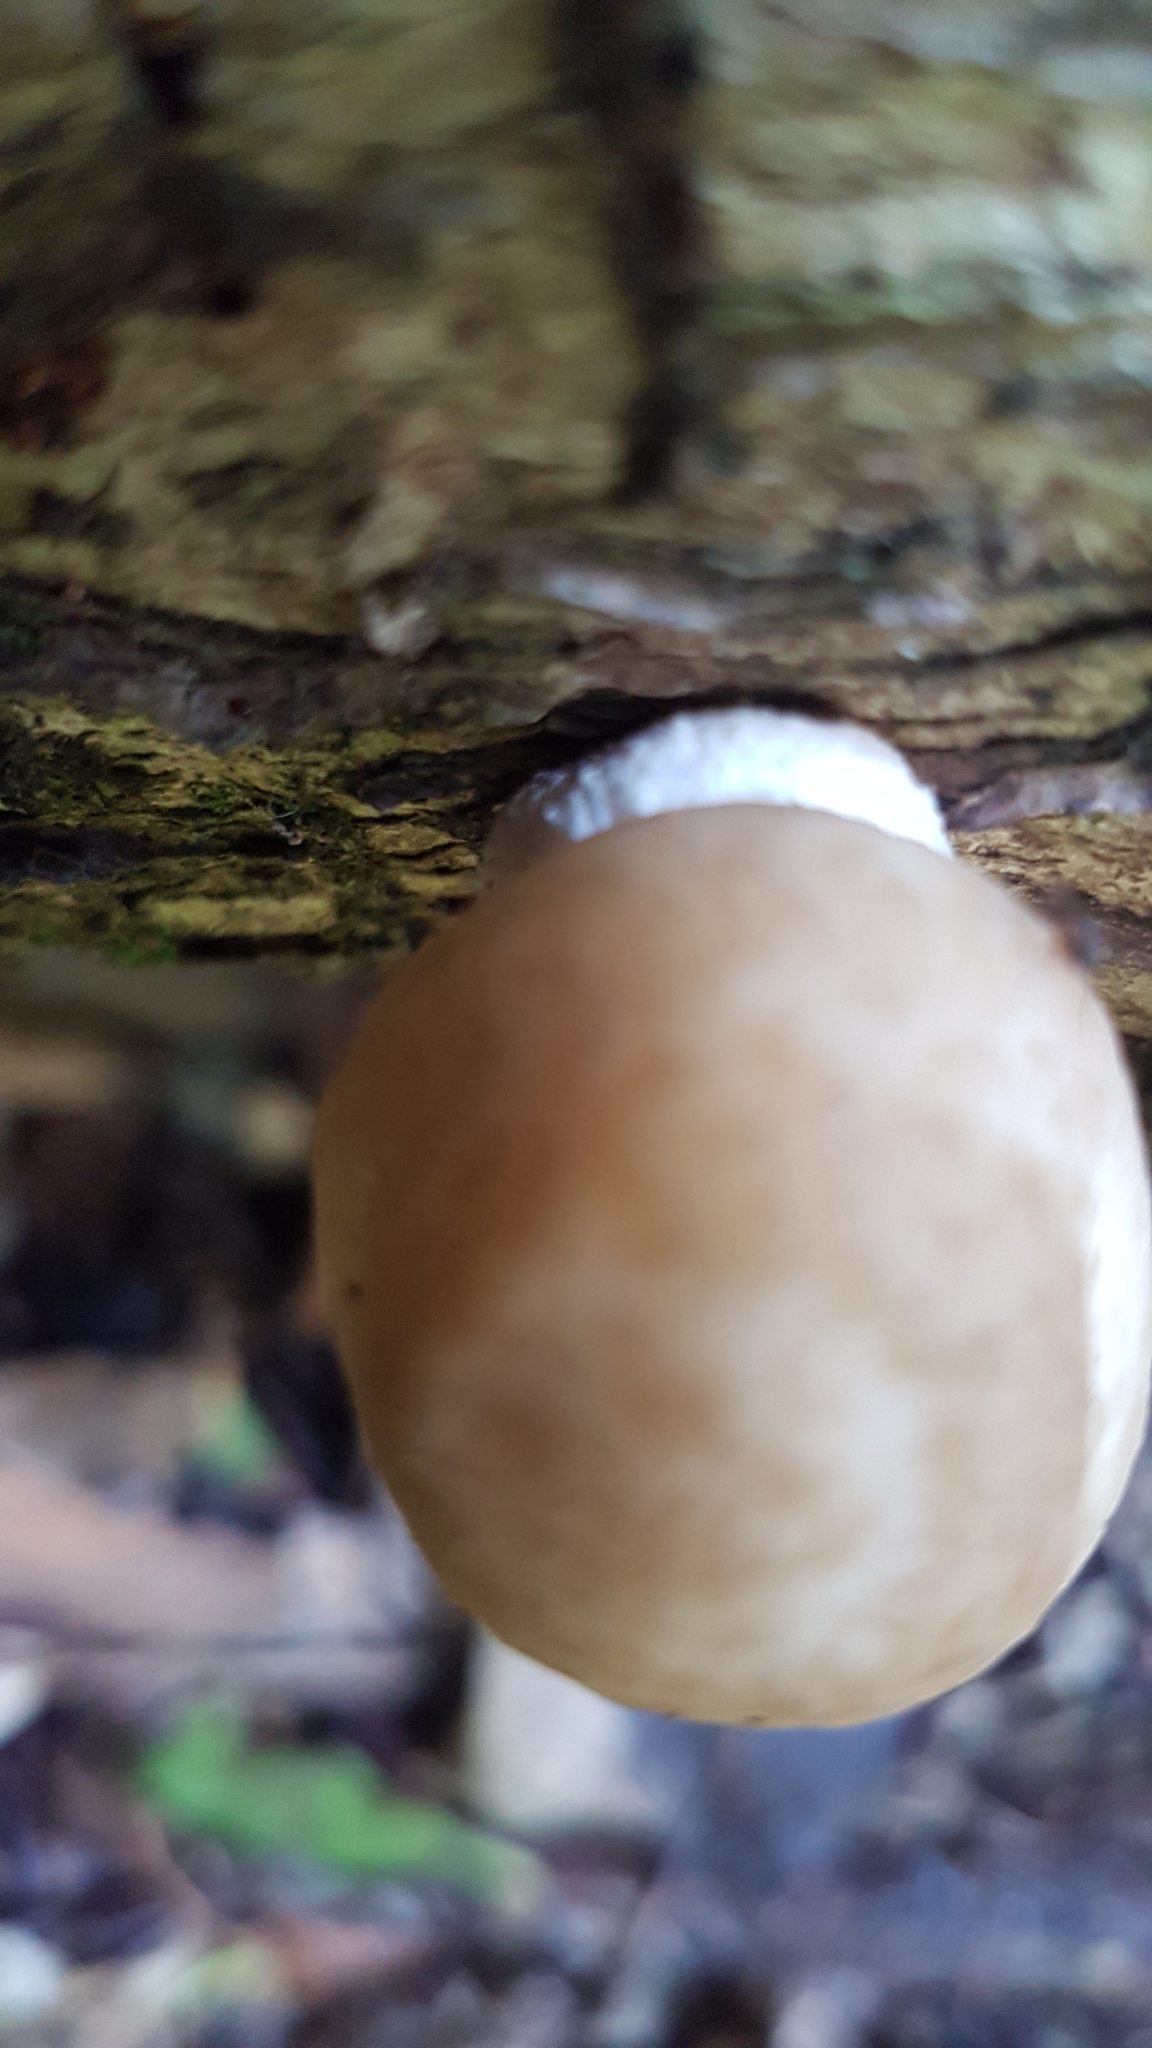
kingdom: Fungi
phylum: Basidiomycota
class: Agaricomycetes
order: Agaricales
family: Physalacriaceae
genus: Oudemansiella
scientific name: Oudemansiella australis
